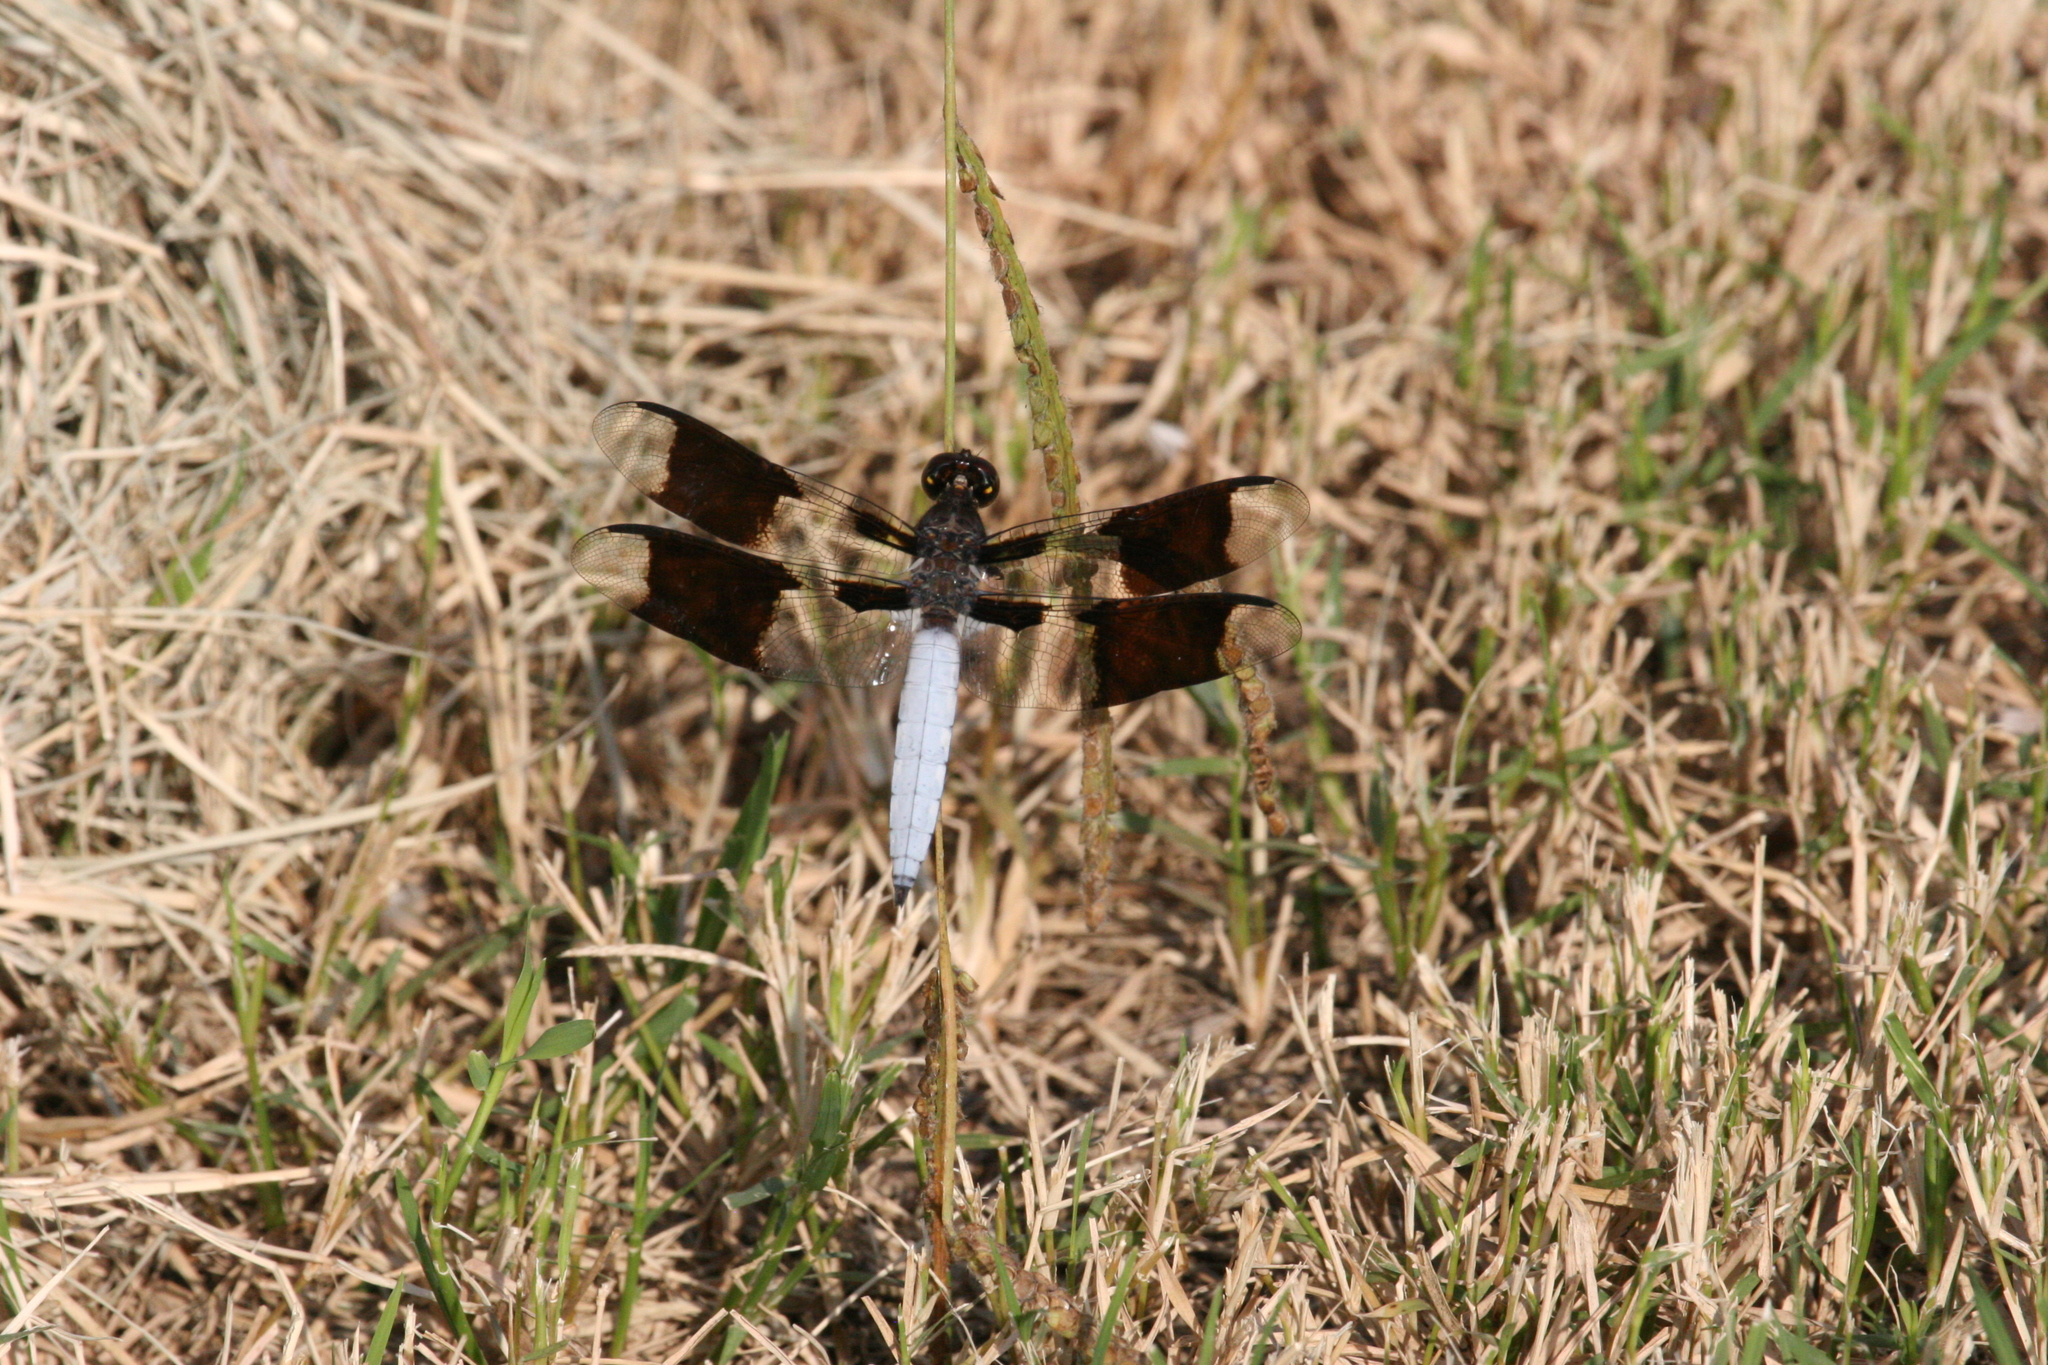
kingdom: Animalia
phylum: Arthropoda
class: Insecta
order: Odonata
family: Libellulidae
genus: Plathemis
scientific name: Plathemis lydia
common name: Common whitetail
